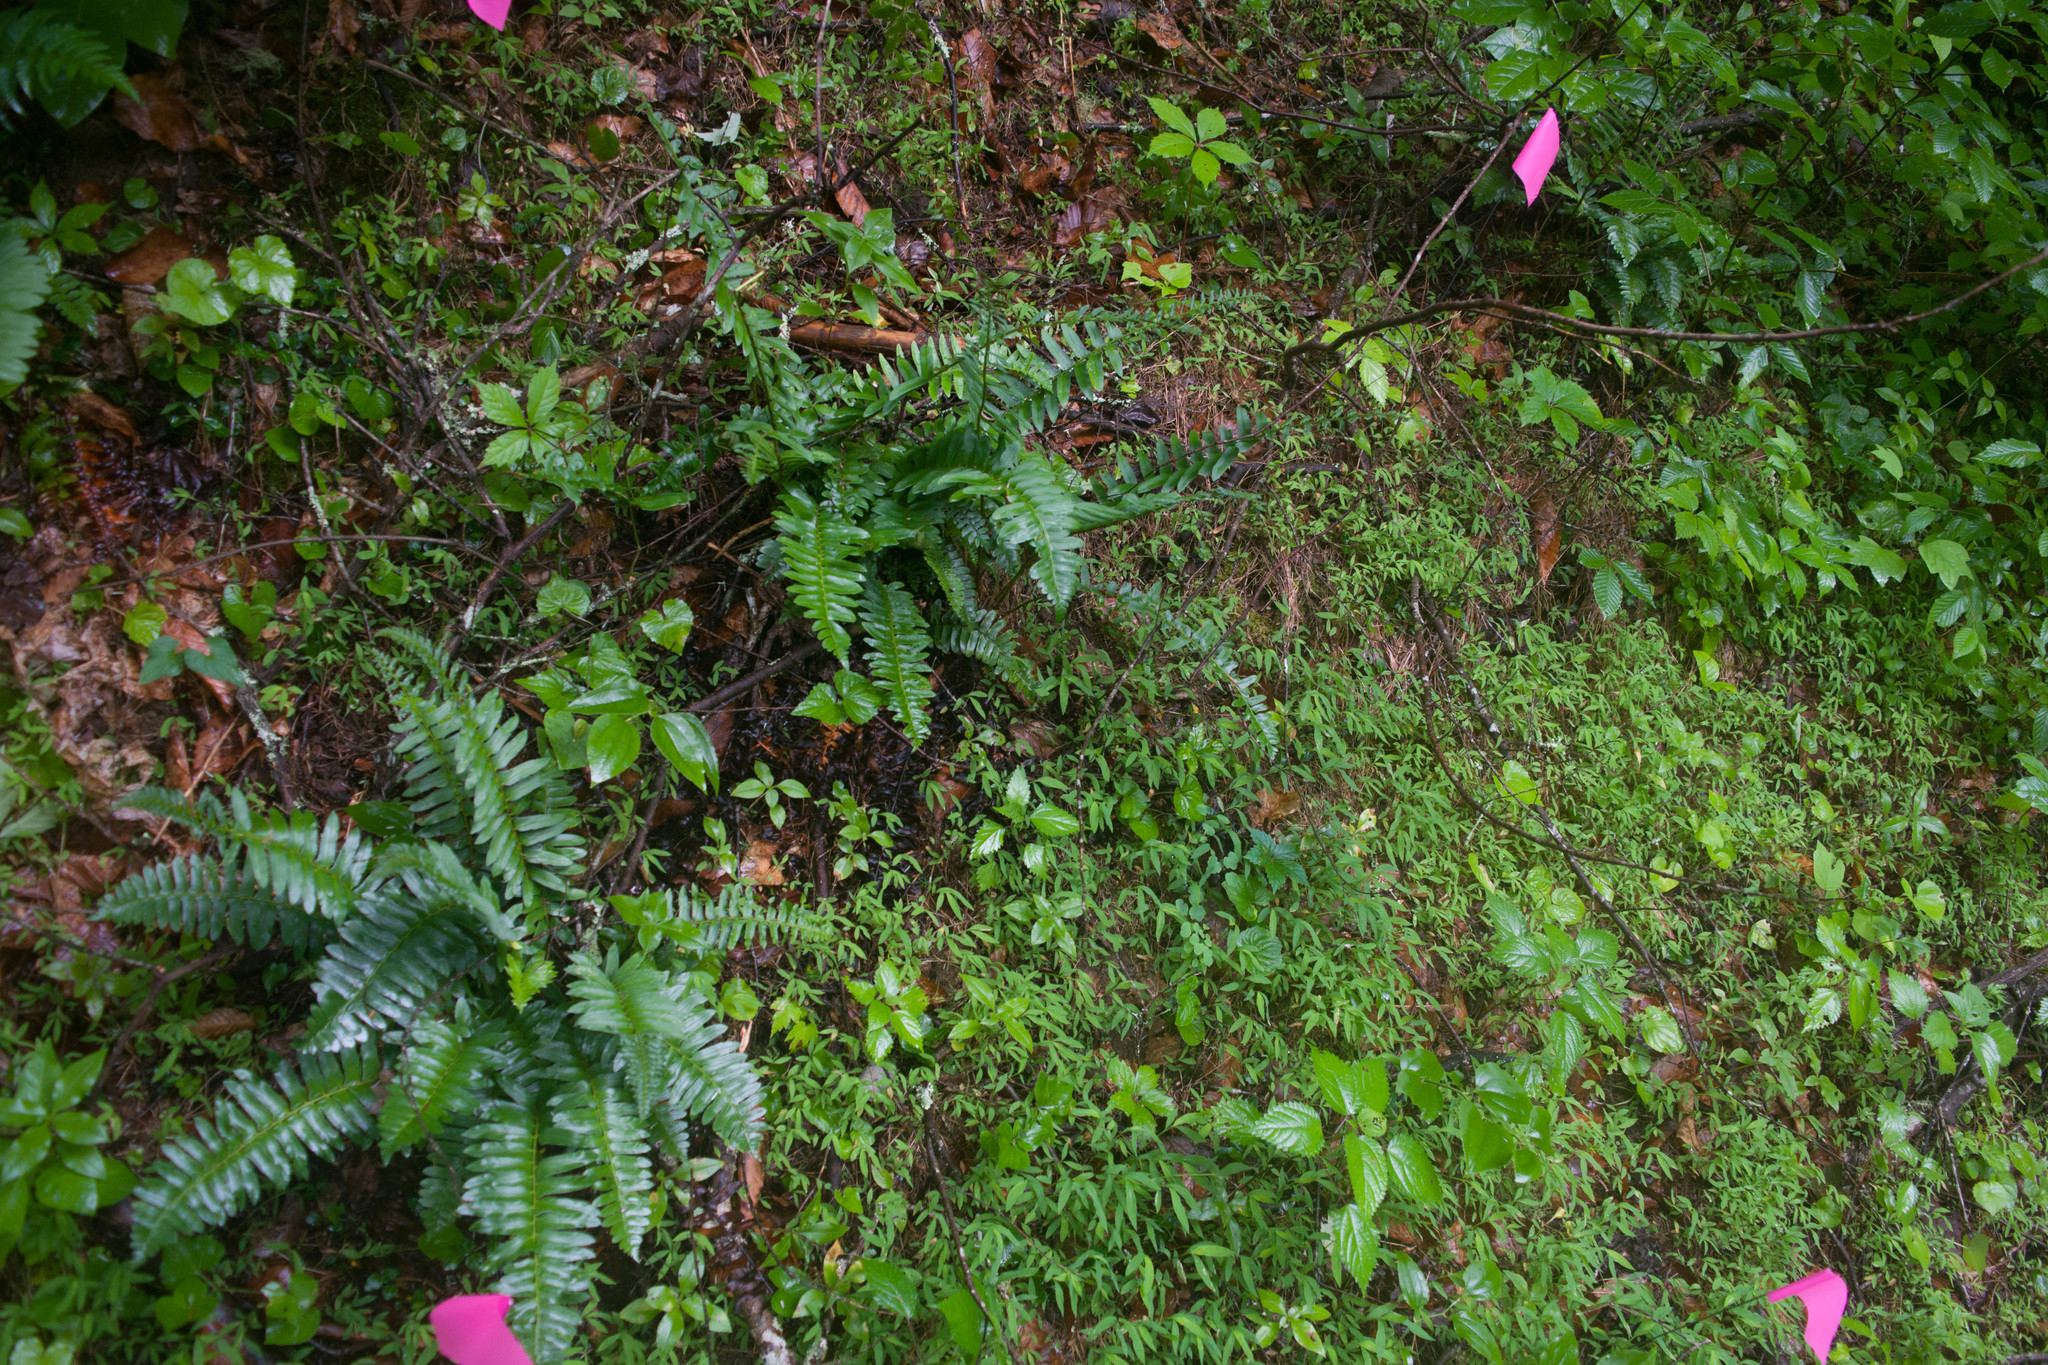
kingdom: Plantae
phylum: Tracheophyta
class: Polypodiopsida
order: Polypodiales
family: Dryopteridaceae
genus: Polystichum
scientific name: Polystichum acrostichoides
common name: Christmas fern
